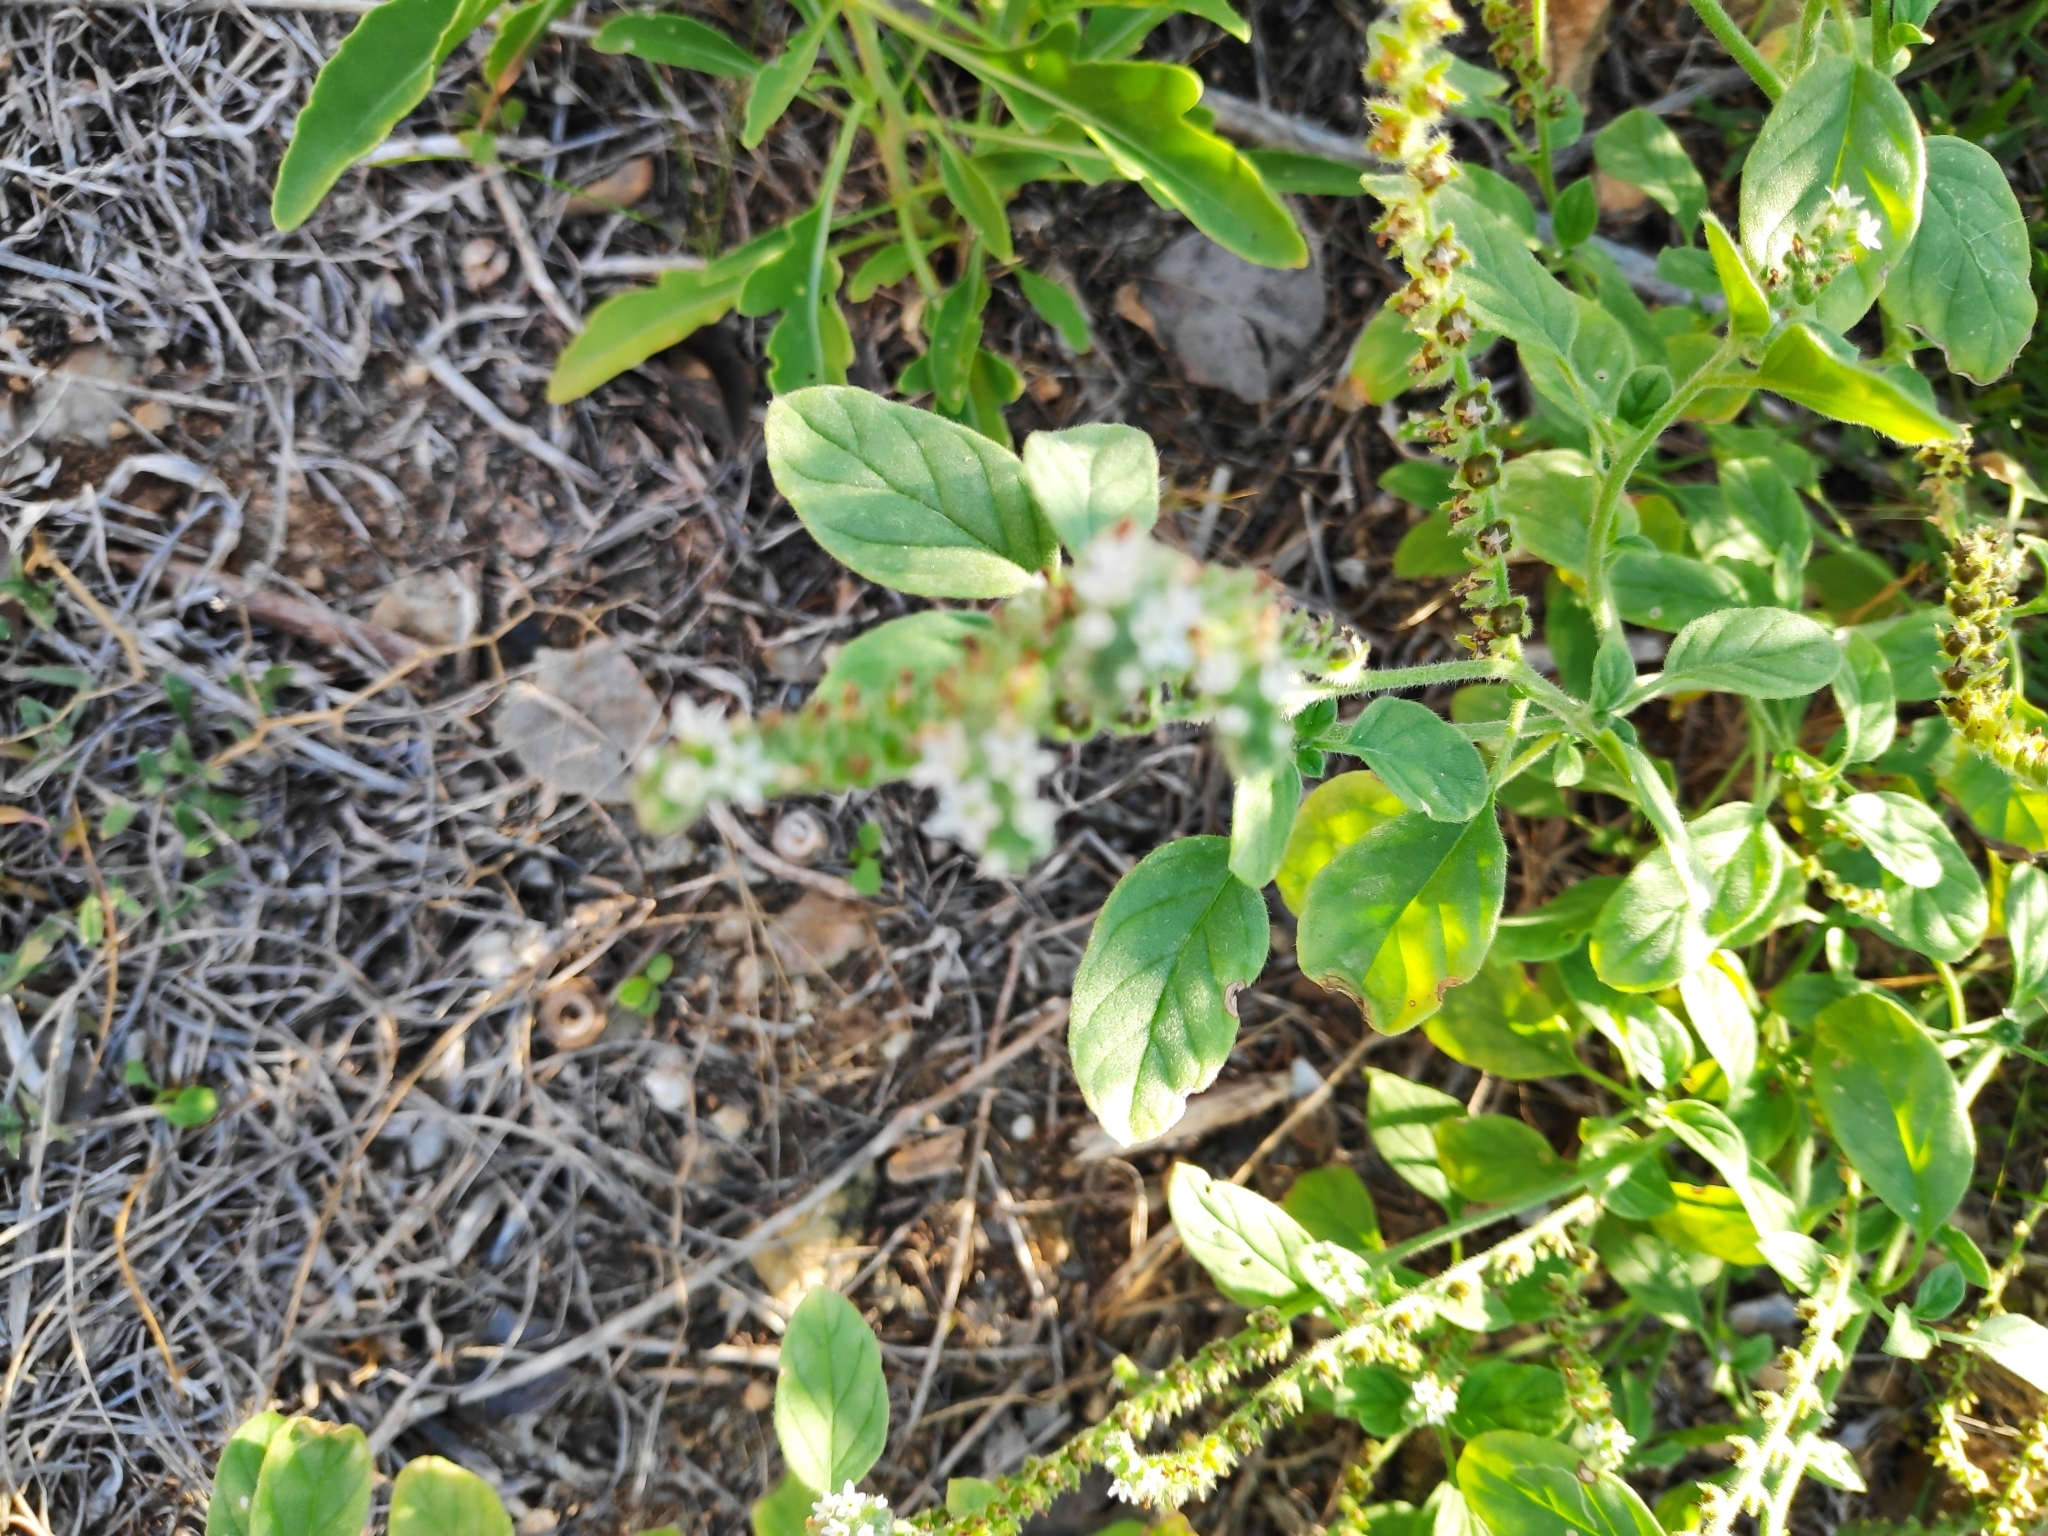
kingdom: Plantae
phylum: Tracheophyta
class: Magnoliopsida
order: Boraginales
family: Heliotropiaceae
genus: Heliotropium
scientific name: Heliotropium europaeum
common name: European heliotrope
